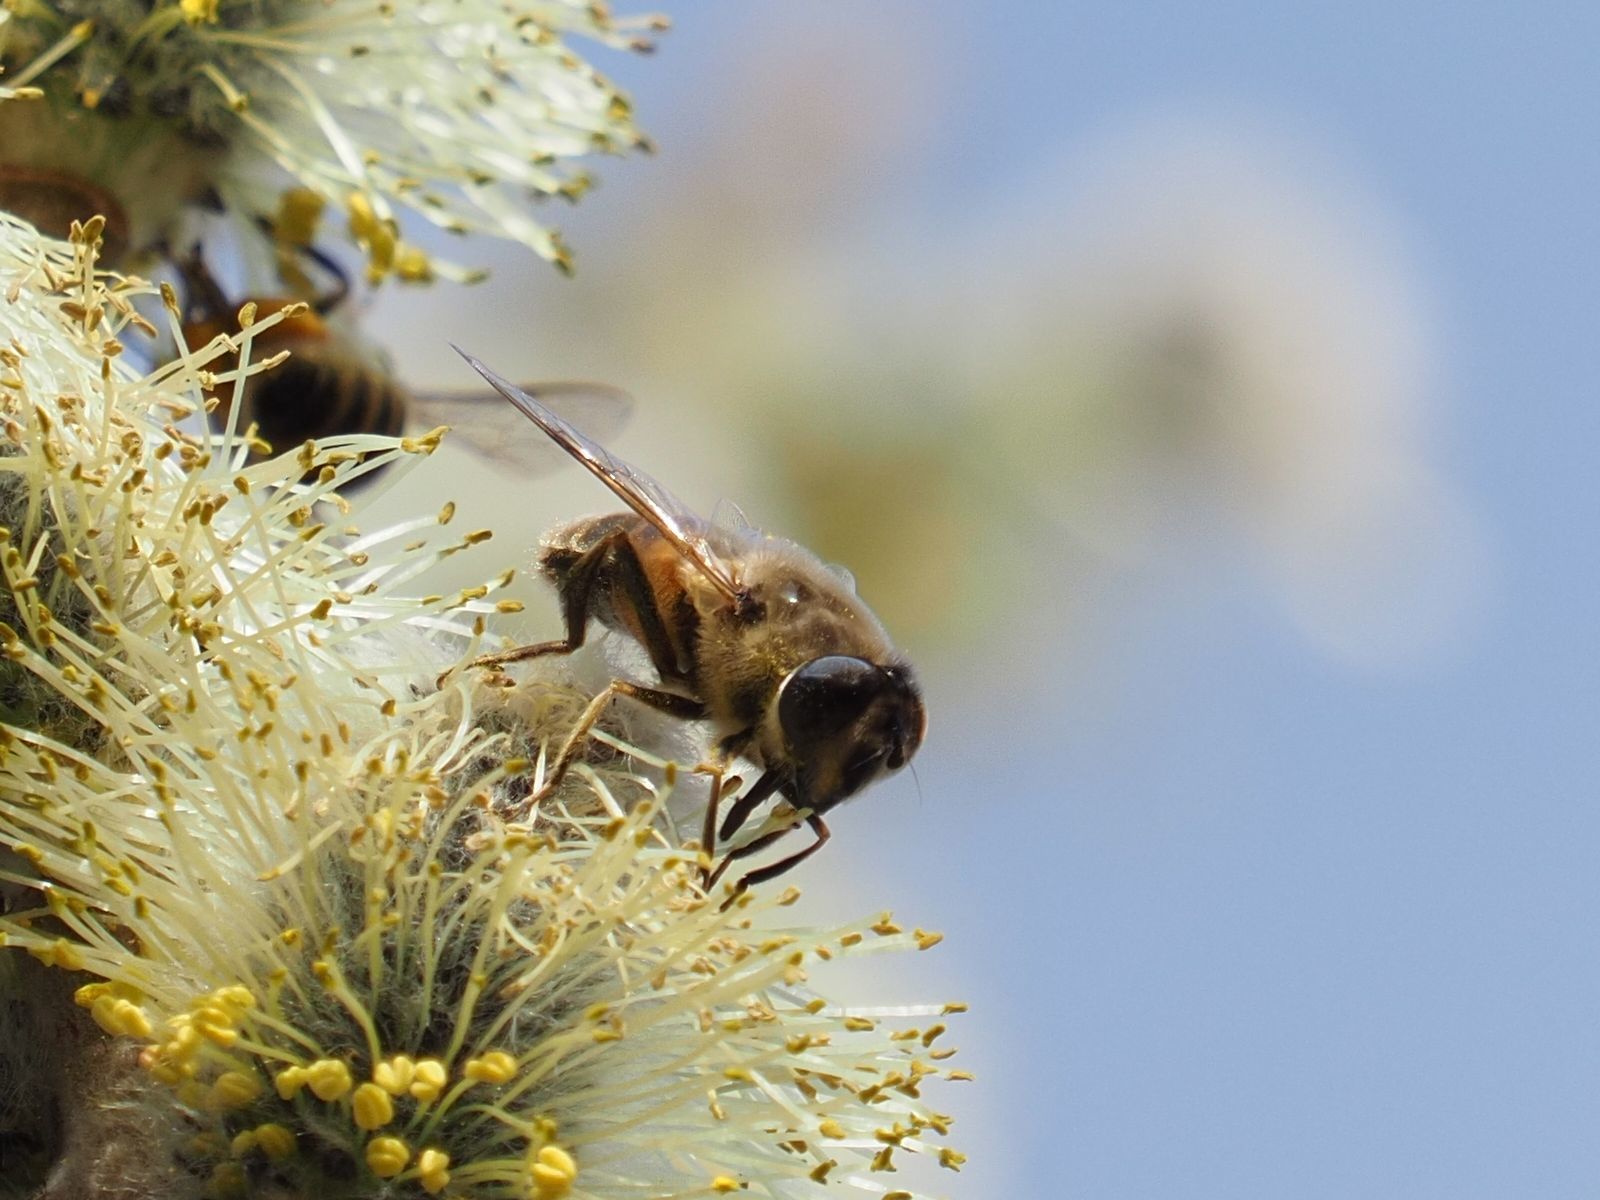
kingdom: Animalia
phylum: Arthropoda
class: Insecta
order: Diptera
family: Syrphidae
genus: Eristalis
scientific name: Eristalis tenax
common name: Drone fly
